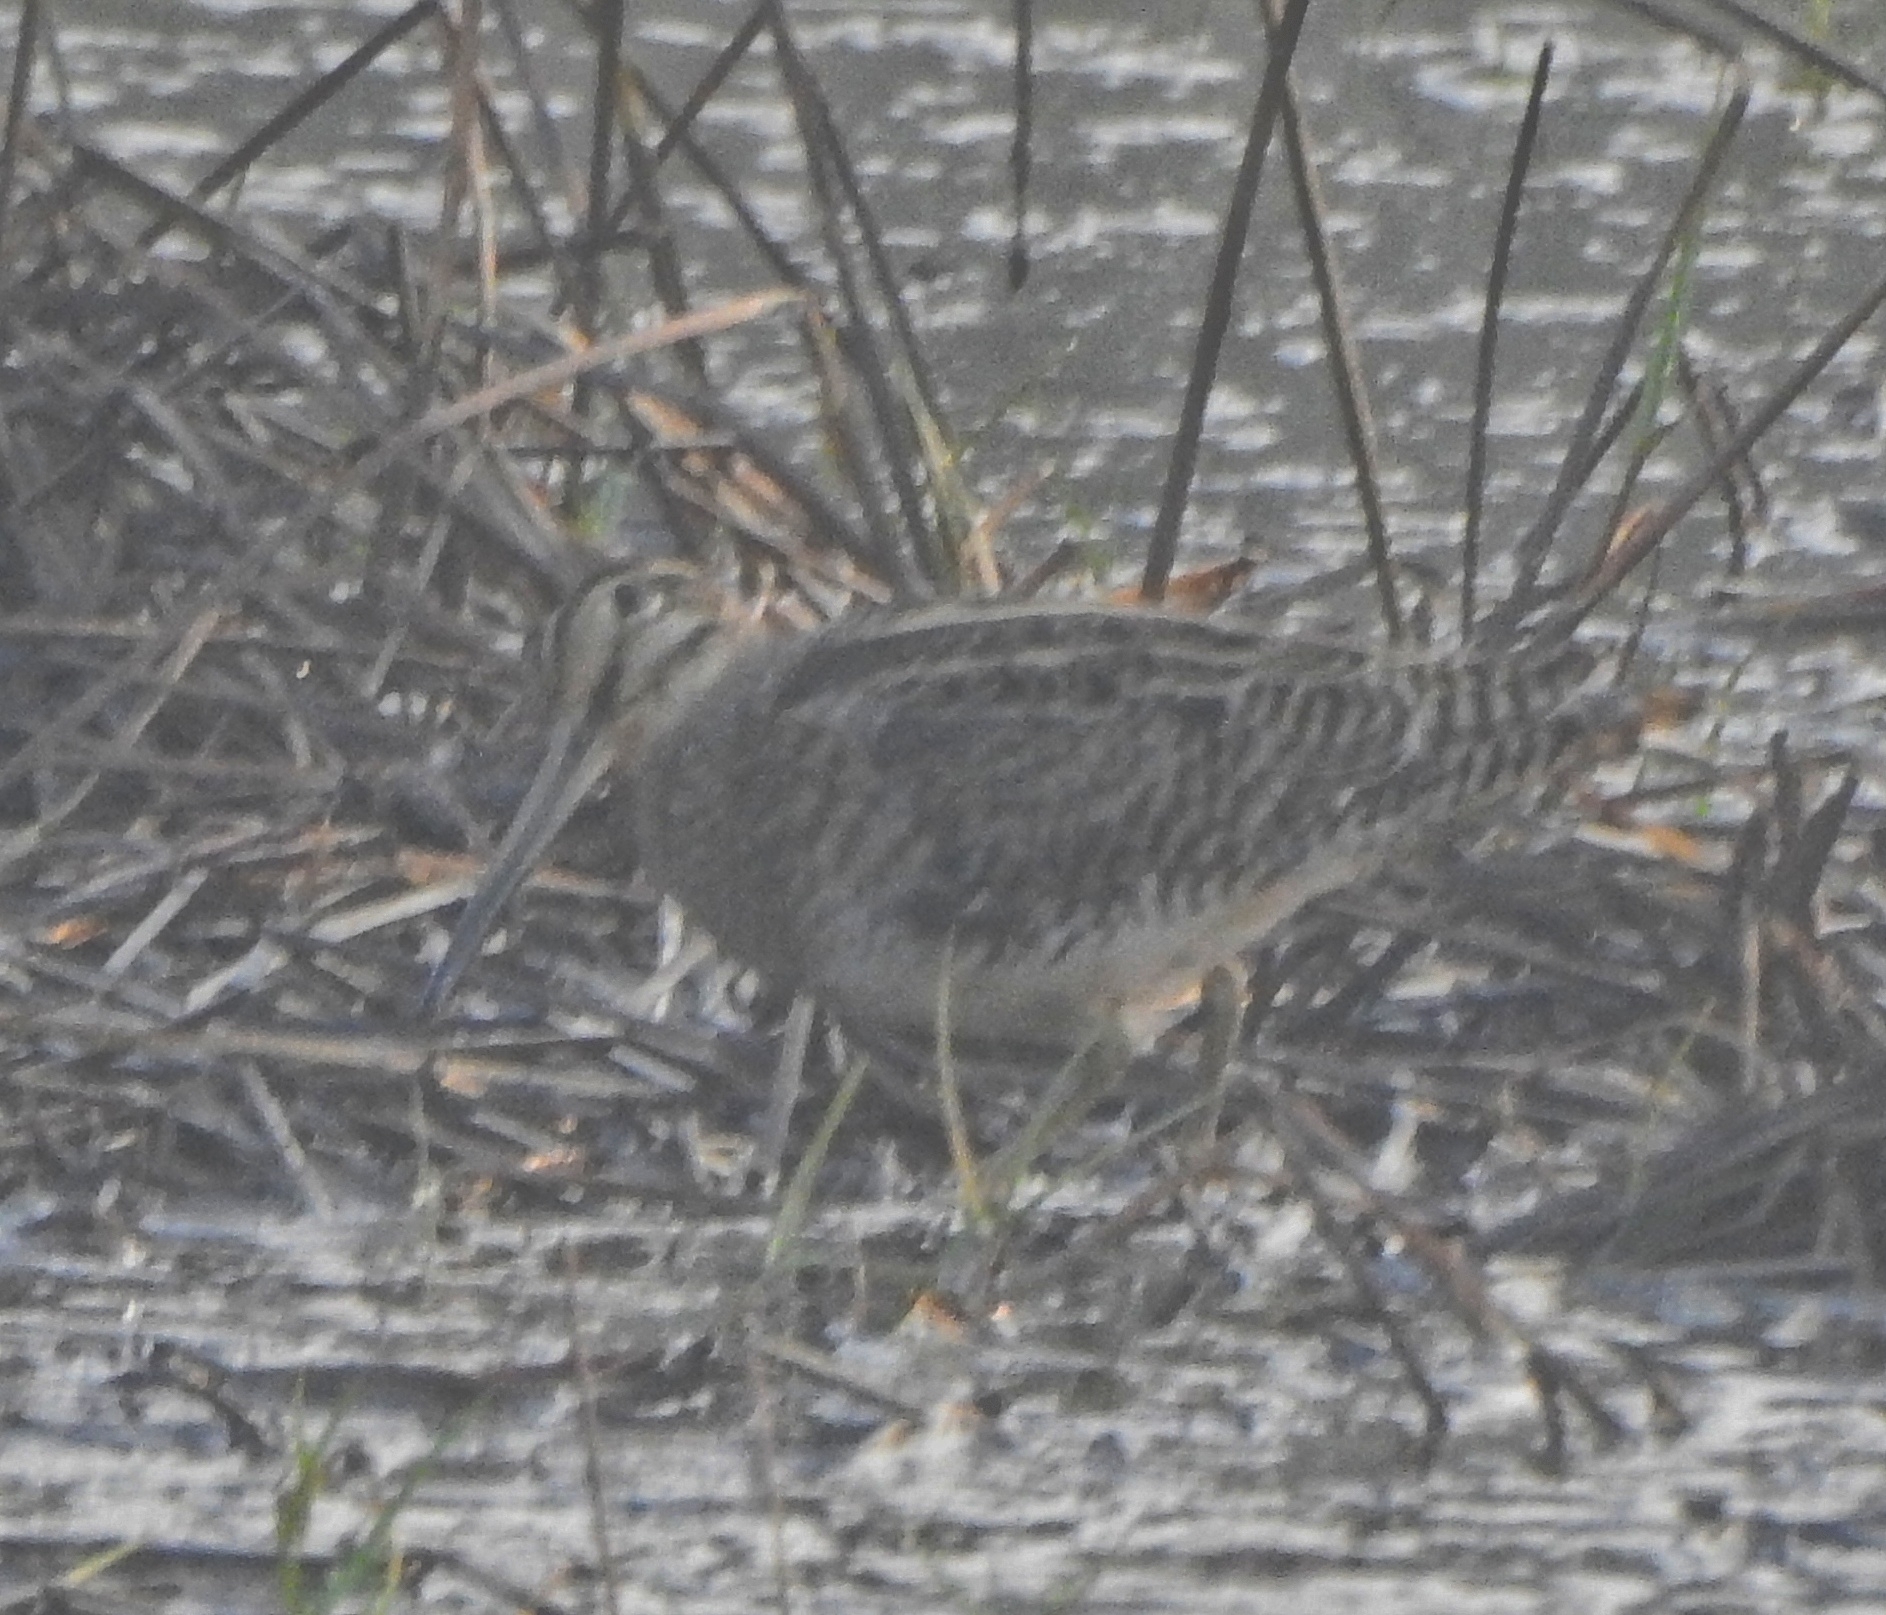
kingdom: Animalia
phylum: Chordata
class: Aves
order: Charadriiformes
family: Scolopacidae
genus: Gallinago
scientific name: Gallinago stenura
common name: Pin-tailed snipe
